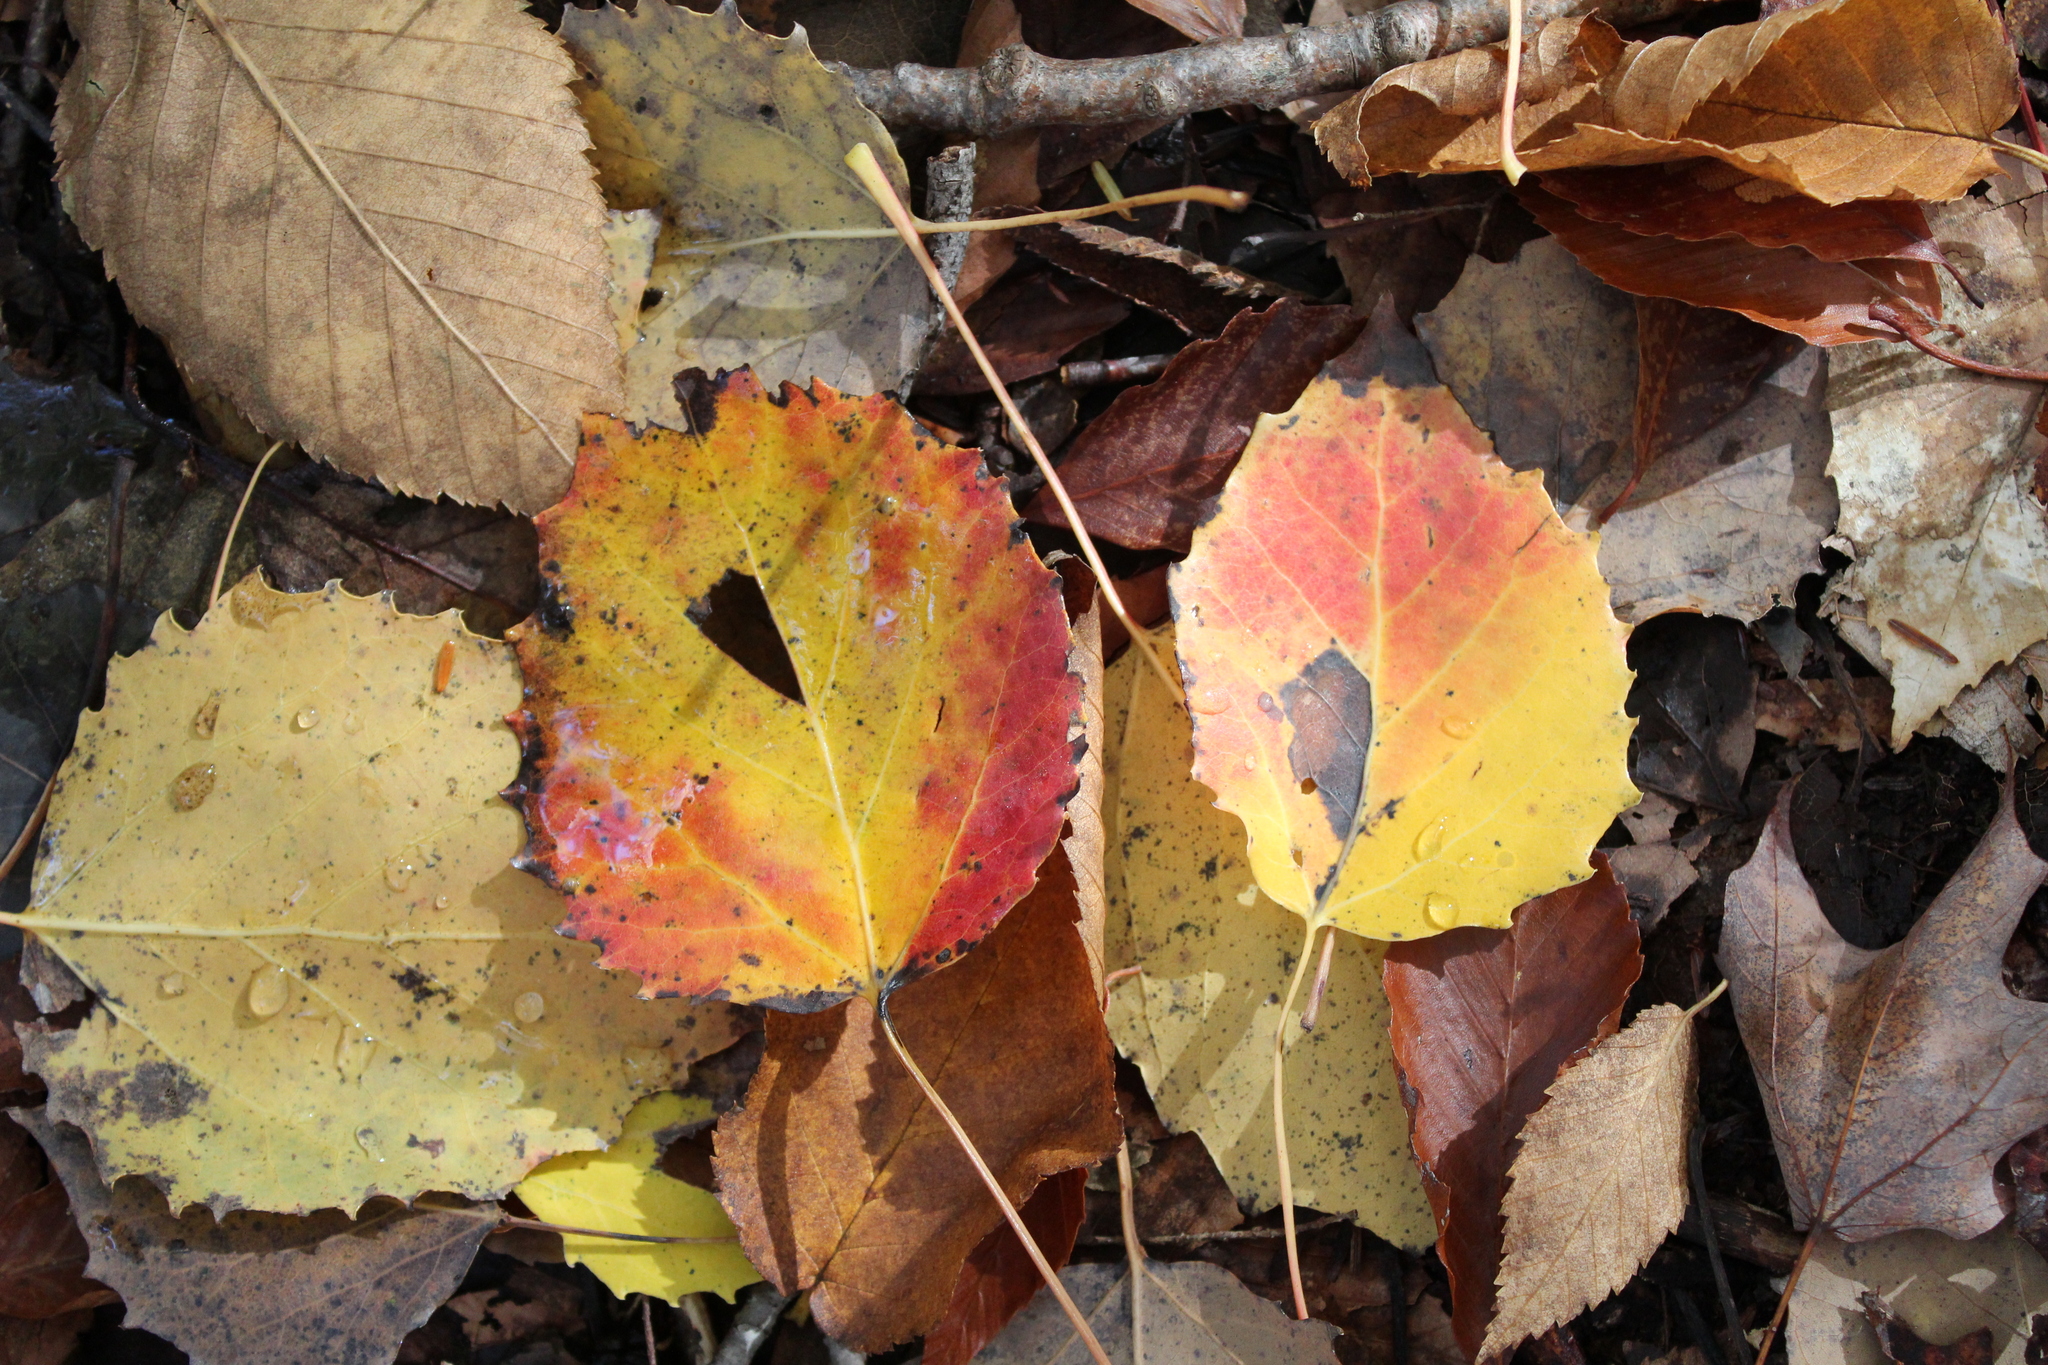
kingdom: Plantae
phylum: Tracheophyta
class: Magnoliopsida
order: Malpighiales
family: Salicaceae
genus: Populus
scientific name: Populus grandidentata
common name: Bigtooth aspen
